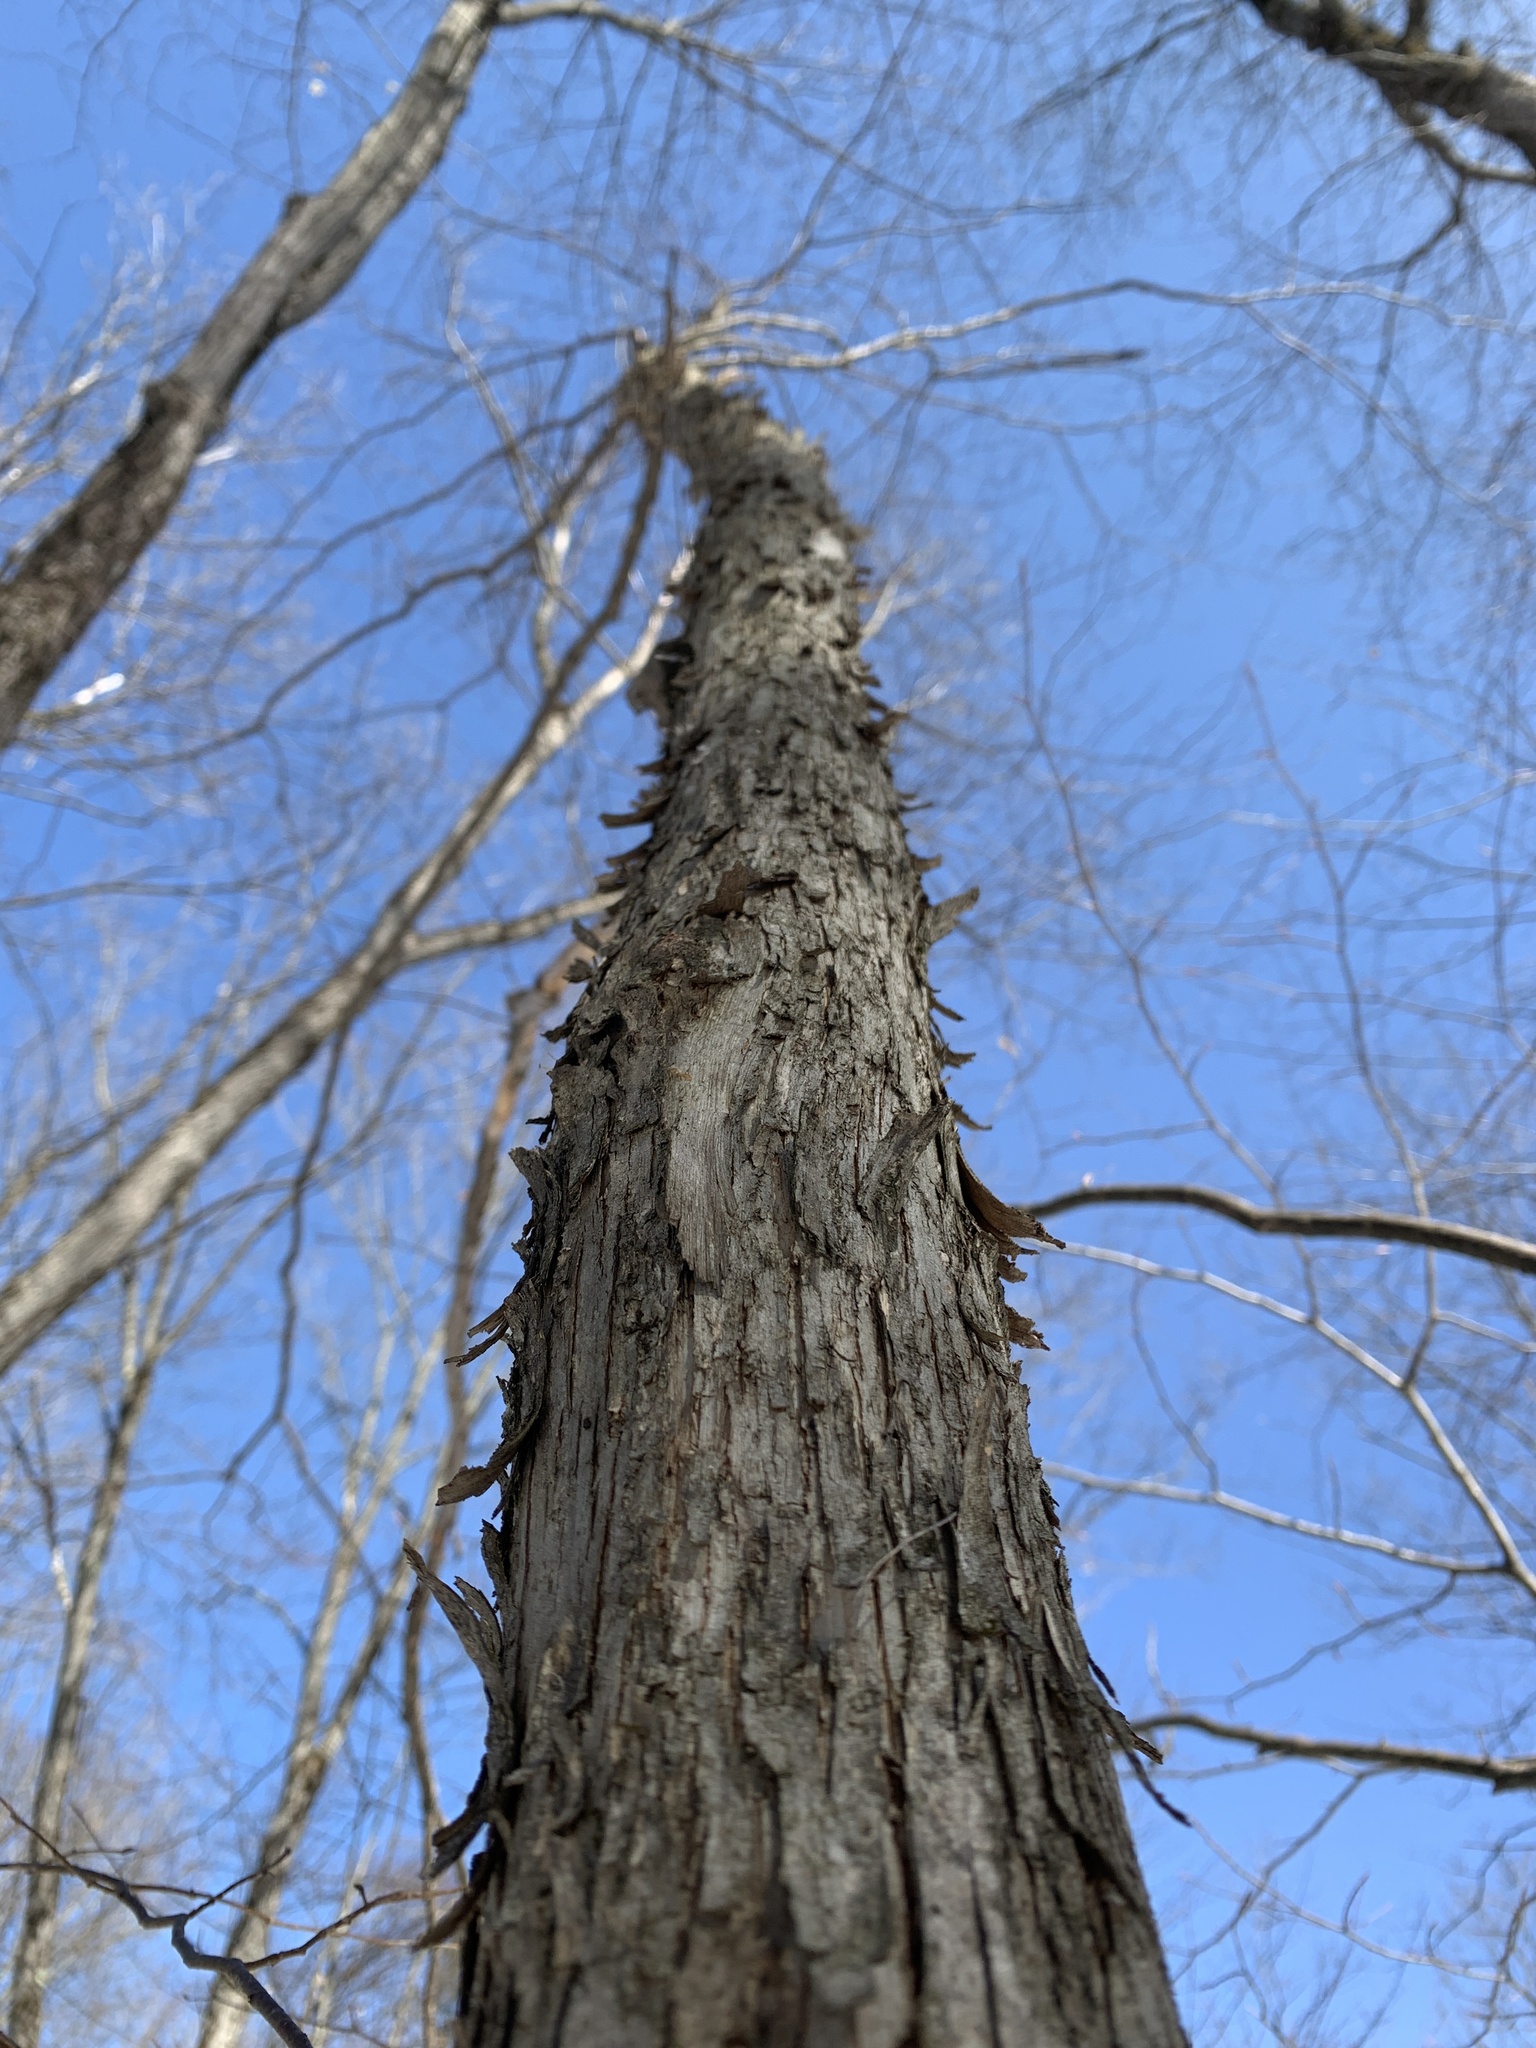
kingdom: Plantae
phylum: Tracheophyta
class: Magnoliopsida
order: Fagales
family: Betulaceae
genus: Ostrya
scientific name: Ostrya virginiana
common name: Ironwood
